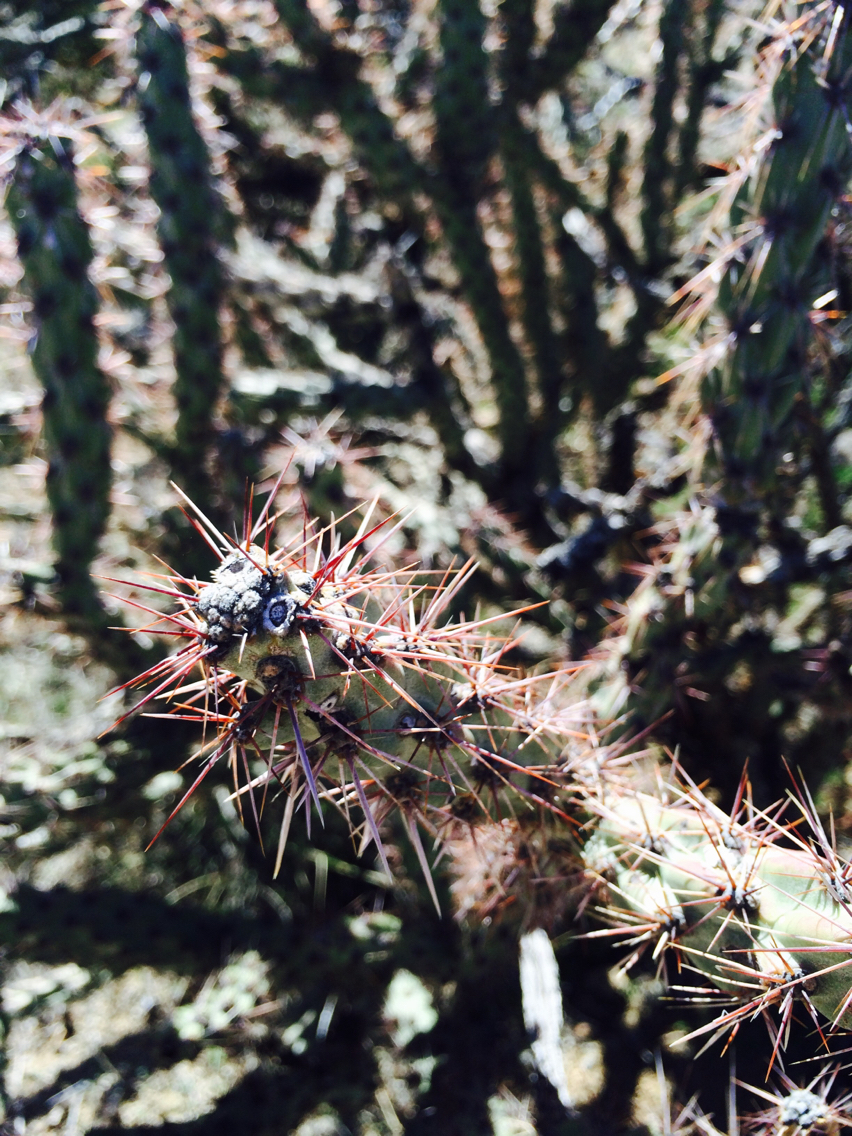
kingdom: Plantae
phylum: Tracheophyta
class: Magnoliopsida
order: Caryophyllales
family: Cactaceae
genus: Cylindropuntia
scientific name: Cylindropuntia acanthocarpa
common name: Buckhorn cholla
